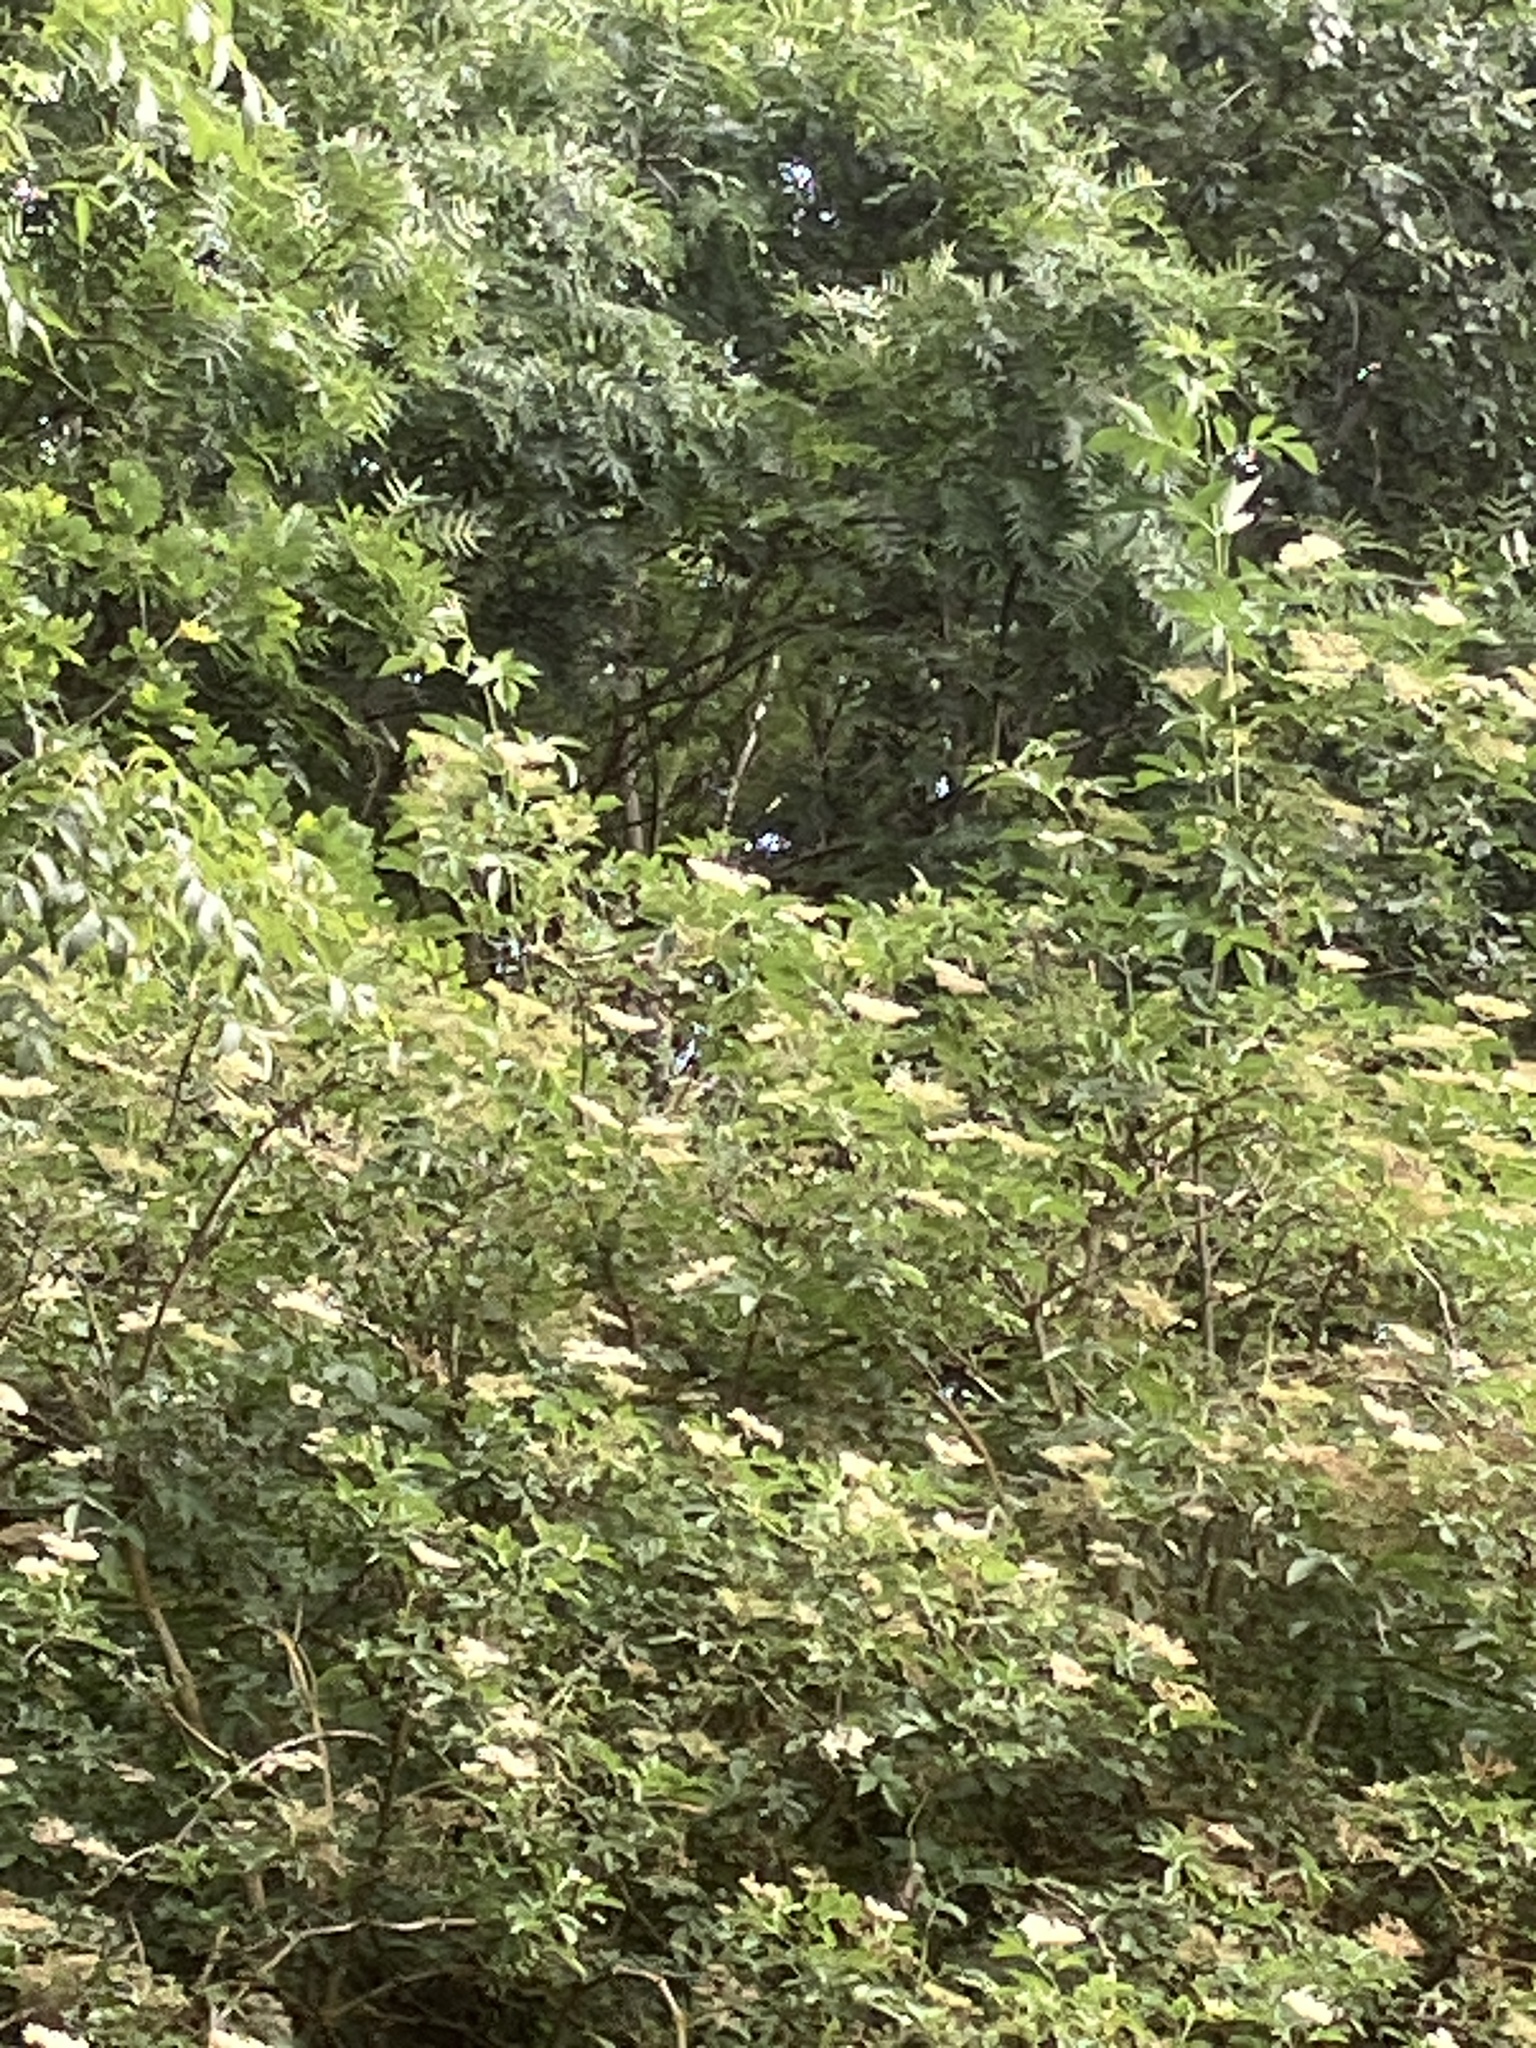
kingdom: Plantae
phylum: Tracheophyta
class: Magnoliopsida
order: Dipsacales
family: Viburnaceae
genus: Sambucus
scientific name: Sambucus nigra
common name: Elder
